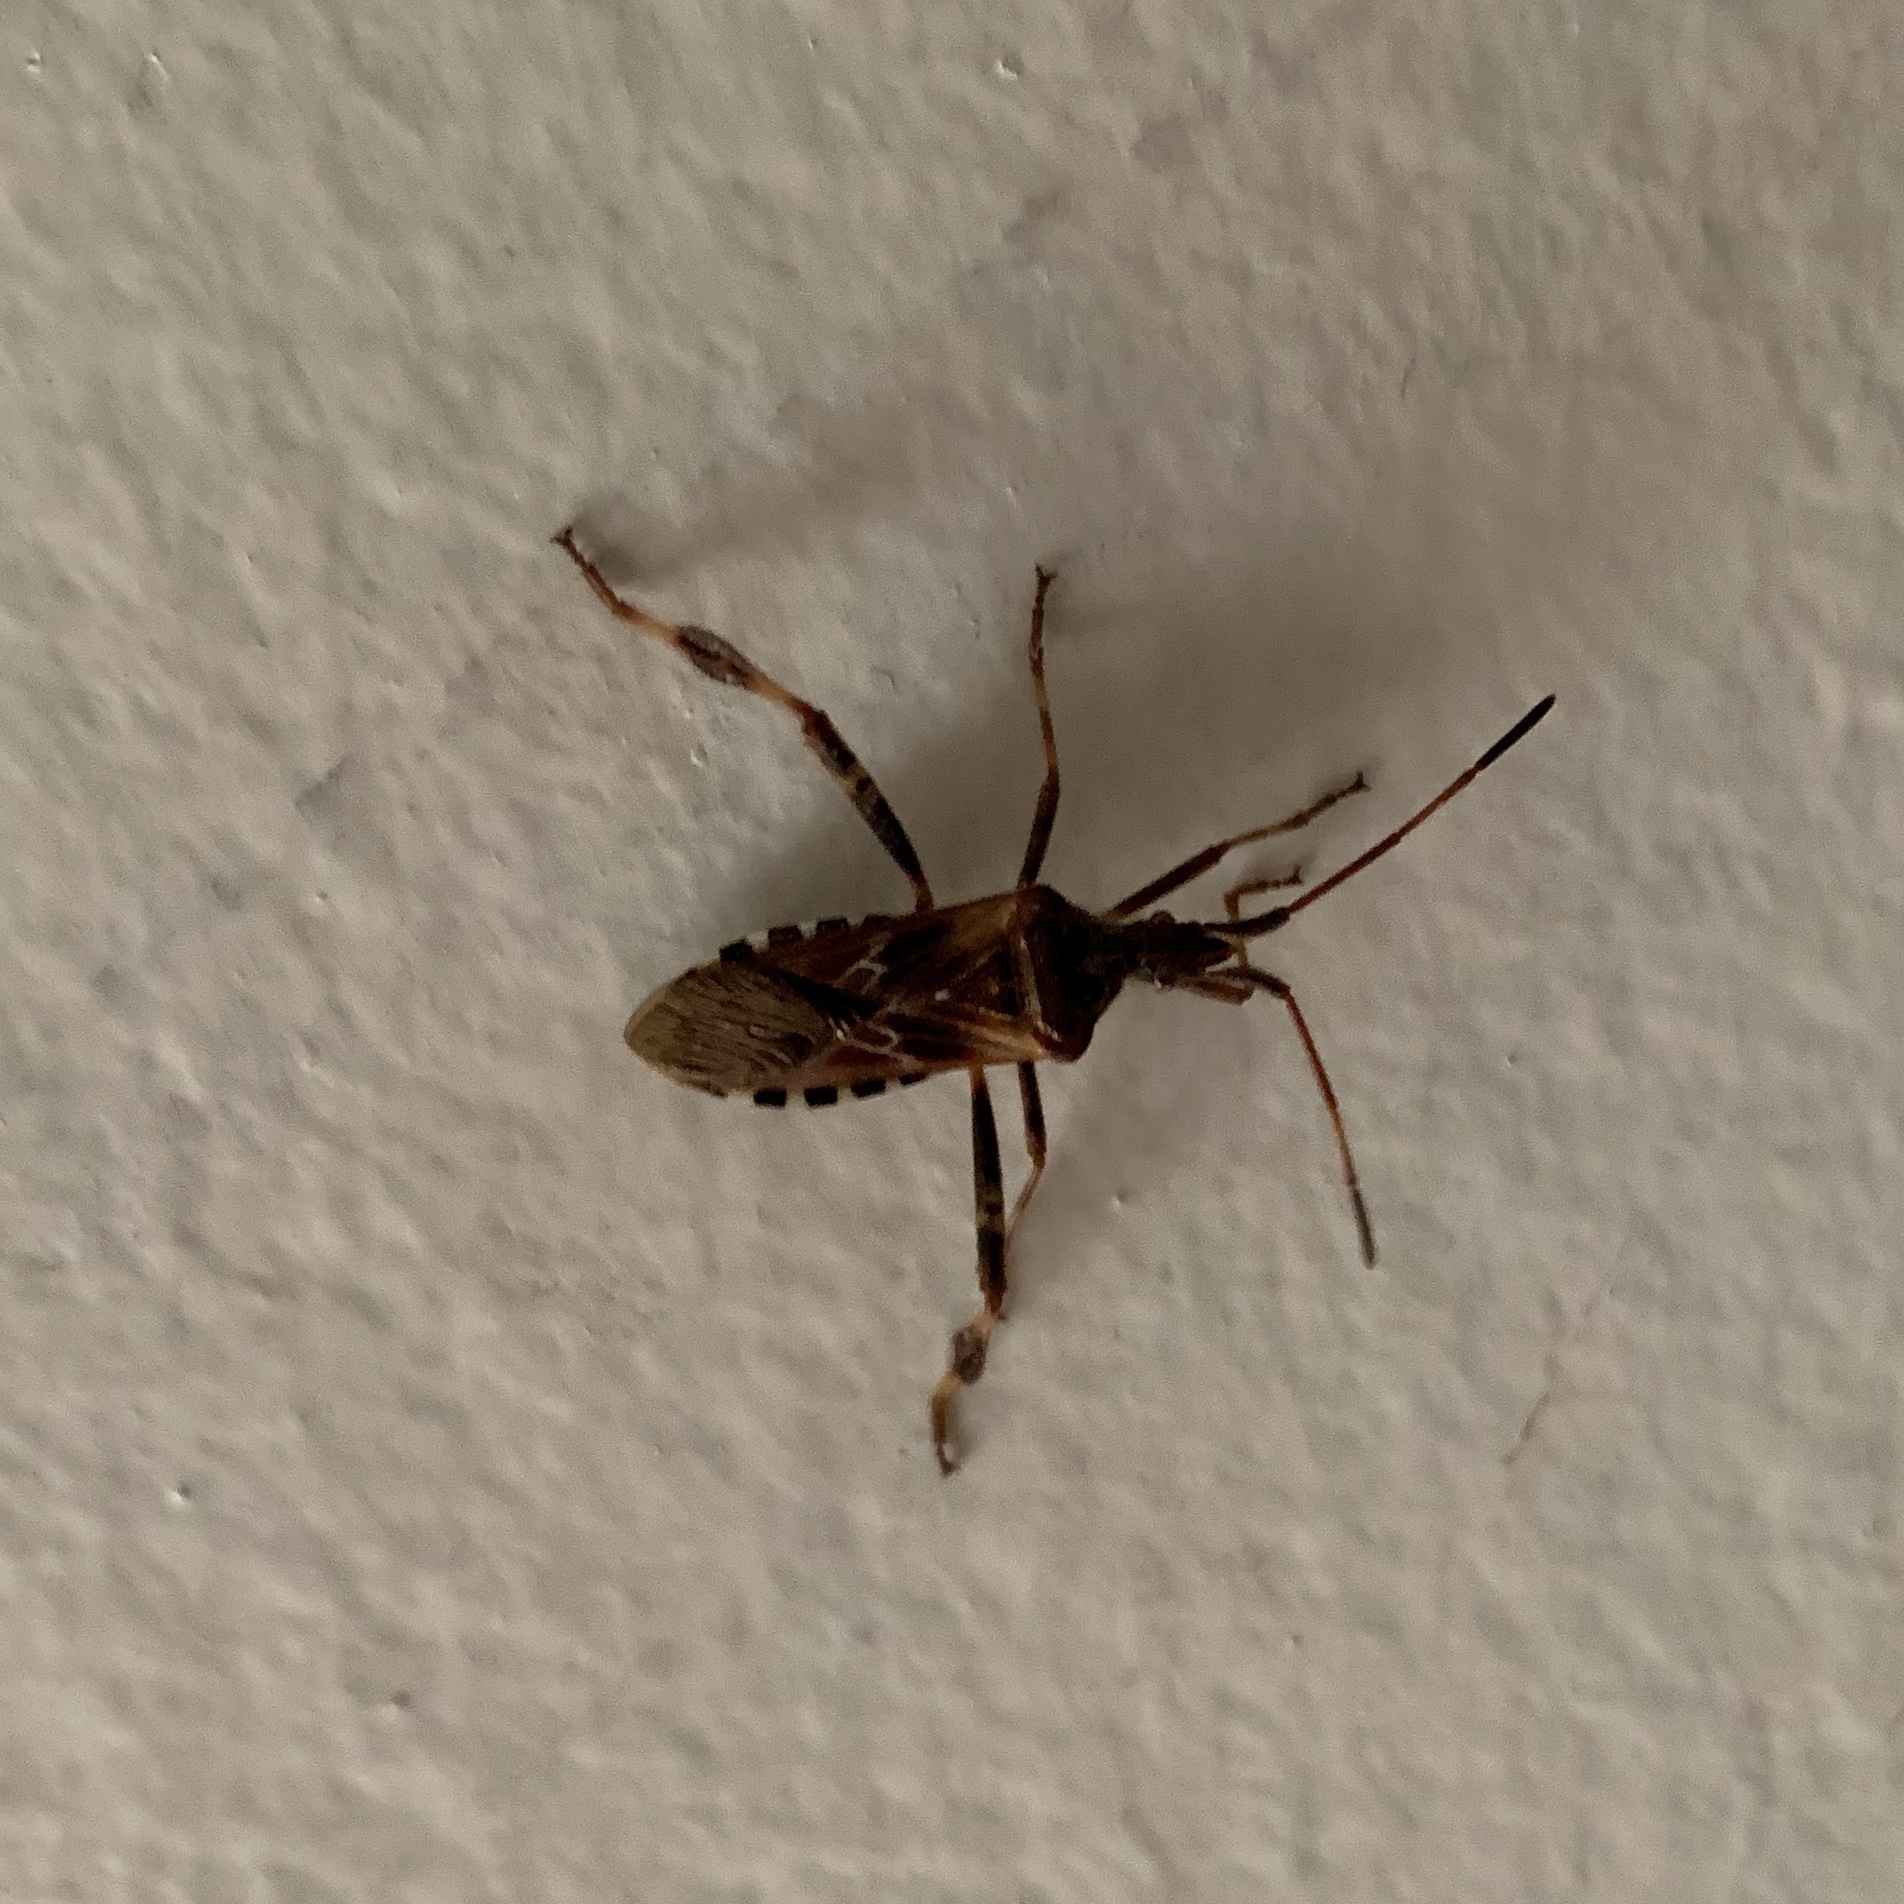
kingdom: Animalia
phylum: Arthropoda
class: Insecta
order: Hemiptera
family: Coreidae
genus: Leptoglossus
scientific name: Leptoglossus occidentalis
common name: Western conifer-seed bug
